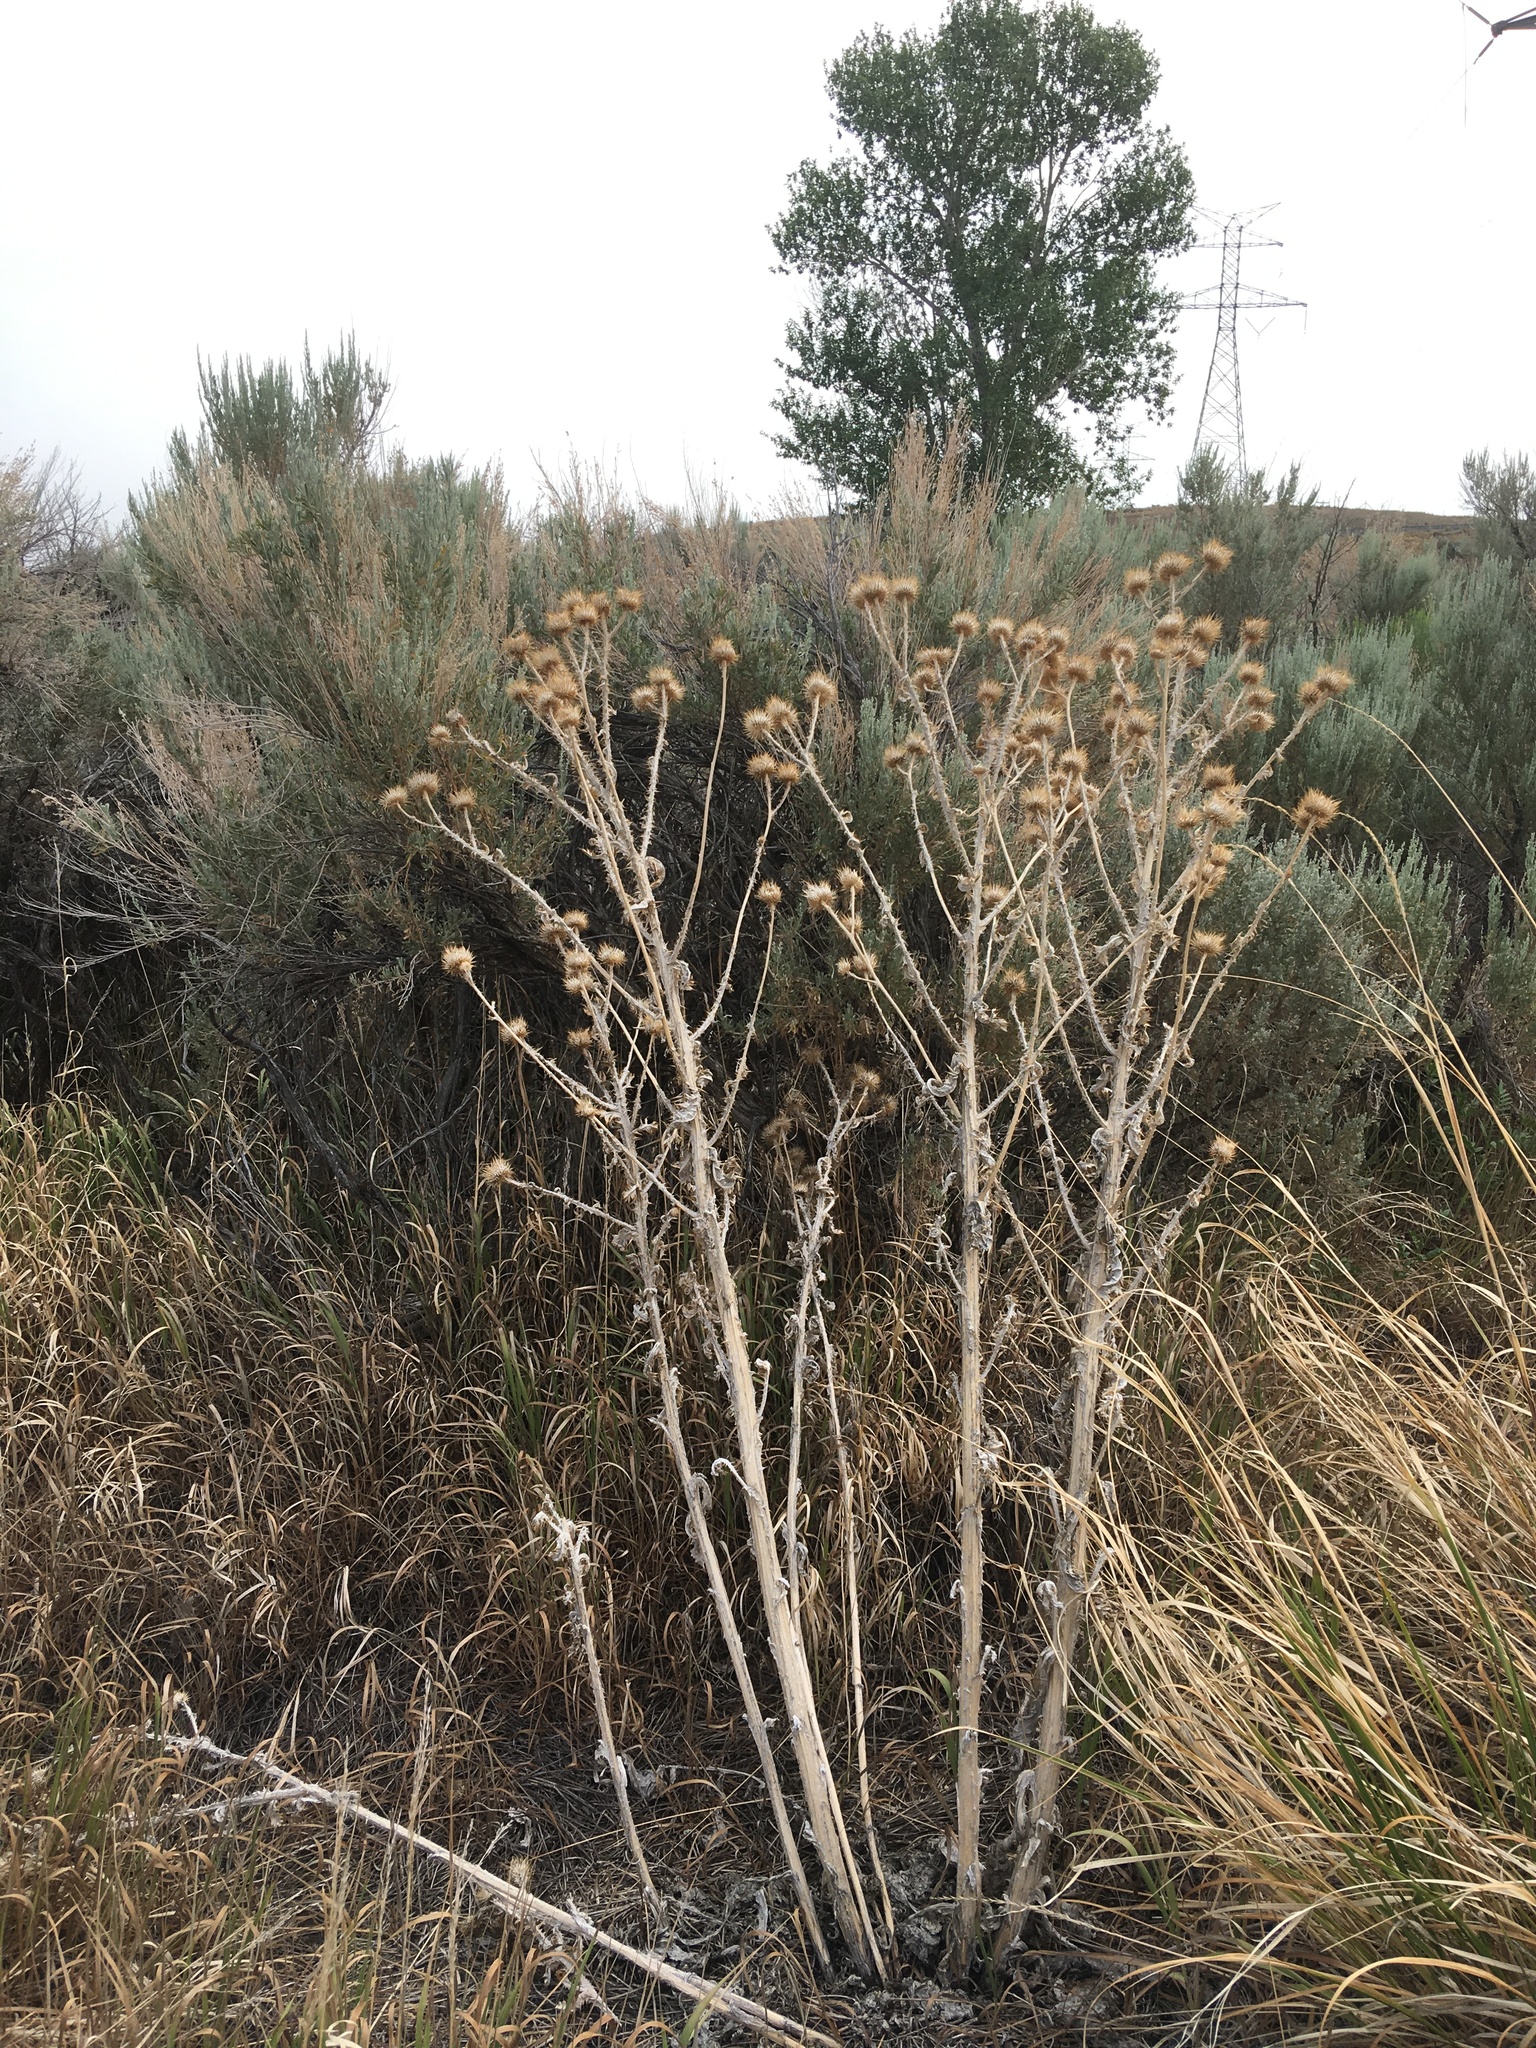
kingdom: Plantae
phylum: Tracheophyta
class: Magnoliopsida
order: Asterales
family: Asteraceae
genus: Onopordum
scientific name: Onopordum acanthium
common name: Scotch thistle
